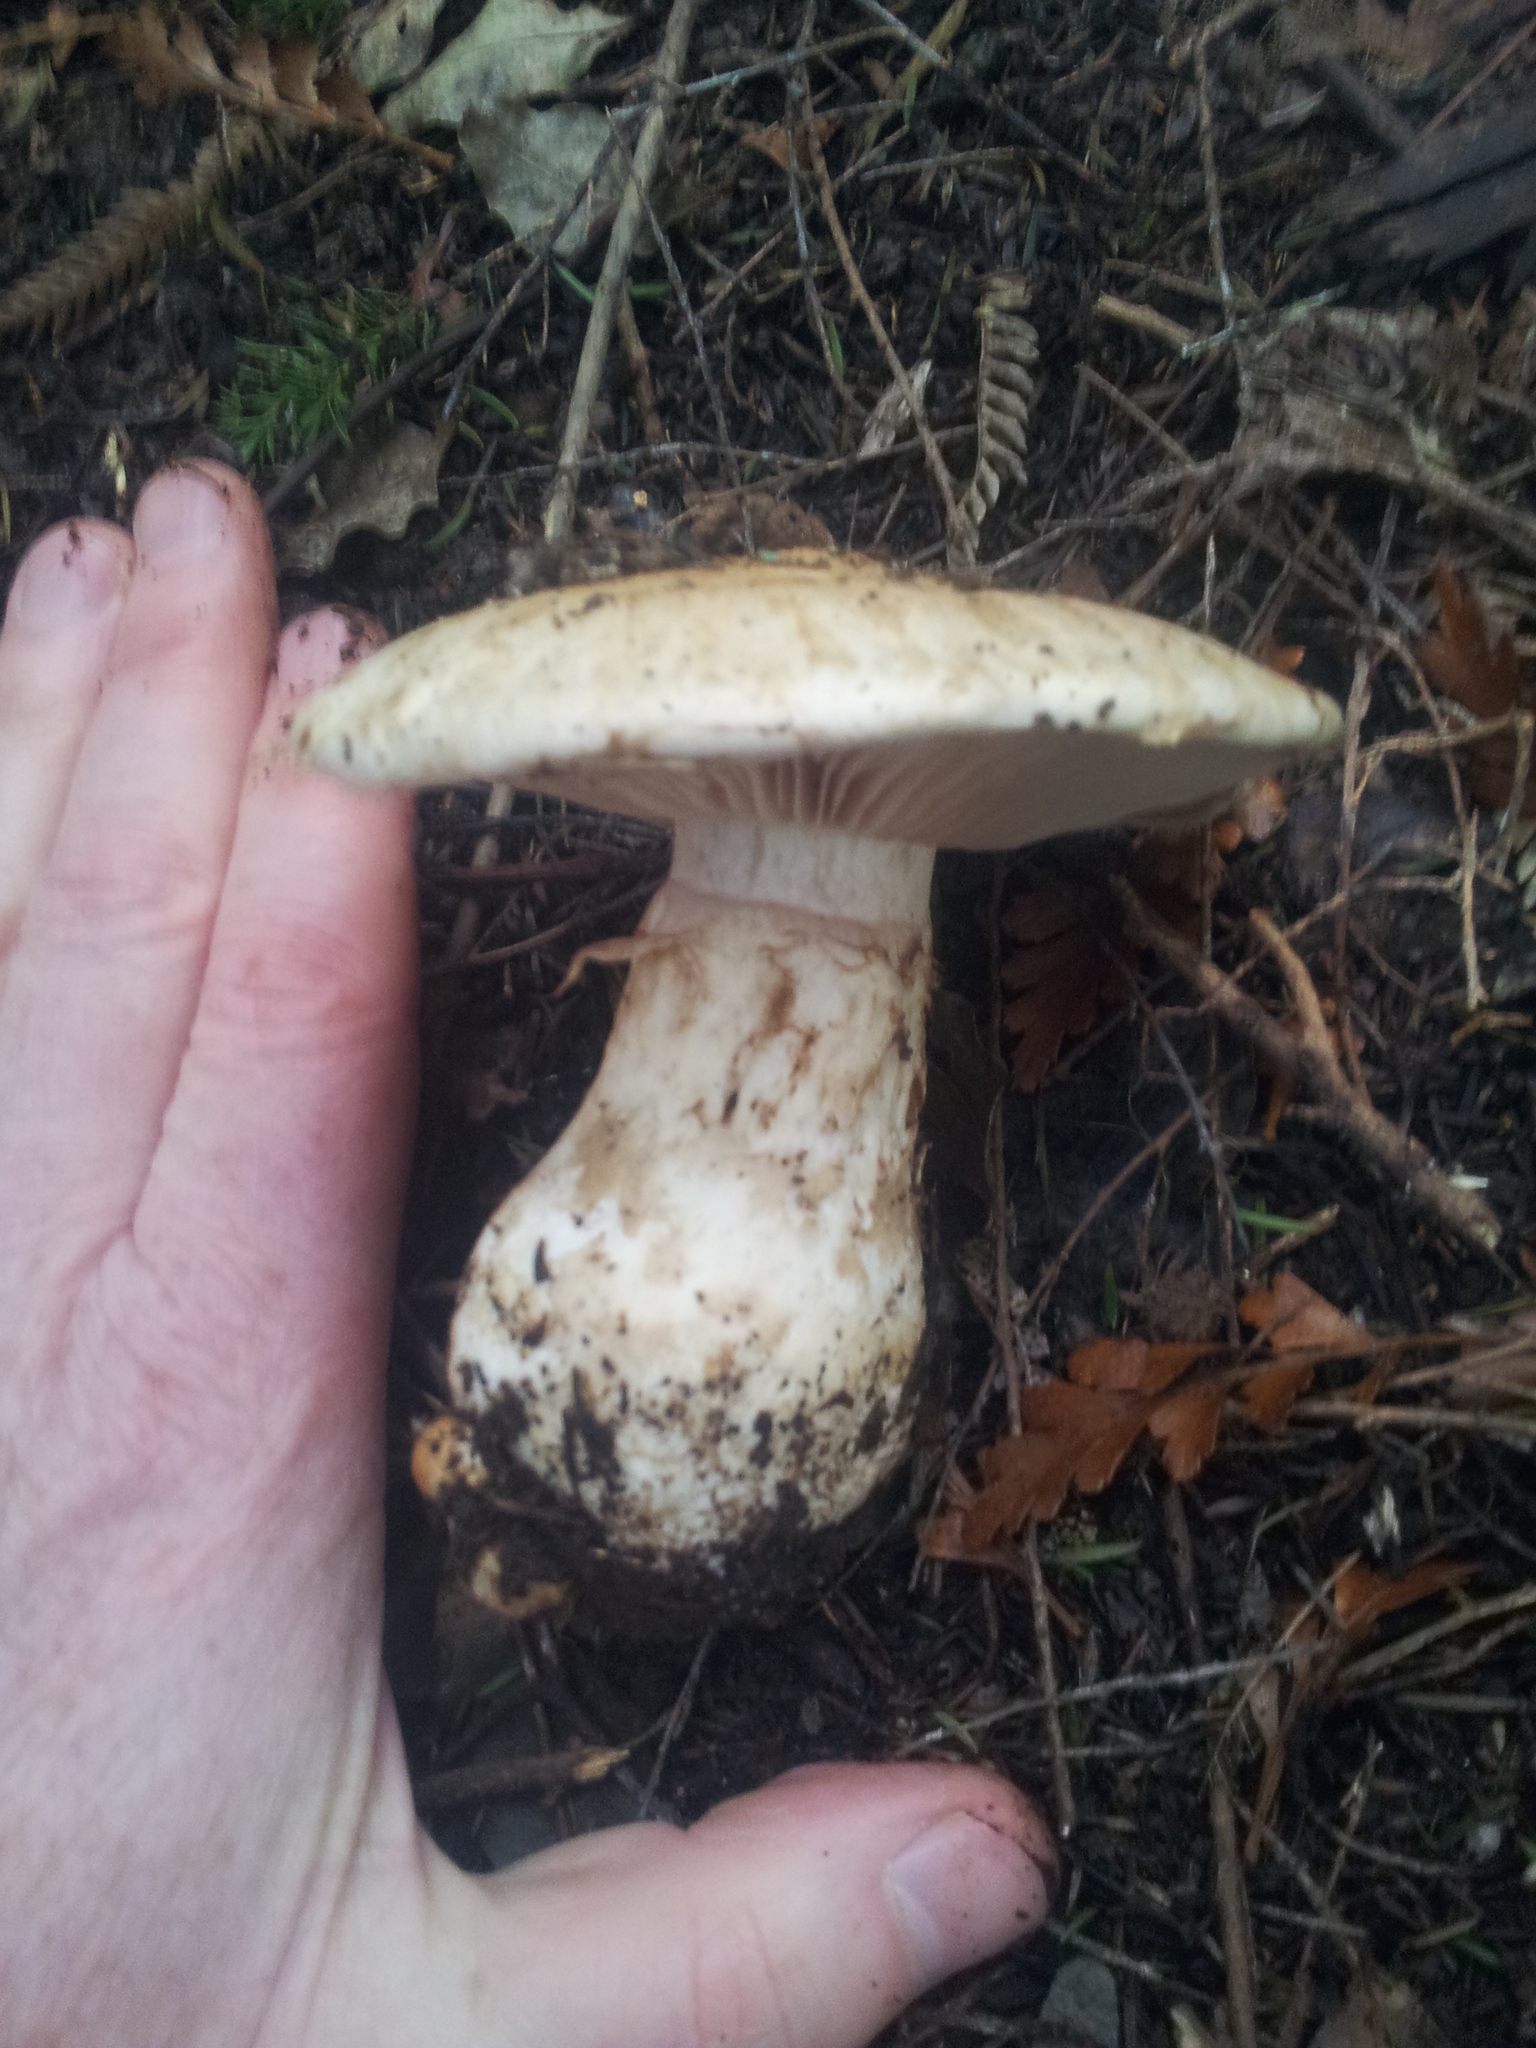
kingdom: Fungi
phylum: Basidiomycota
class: Agaricomycetes
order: Agaricales
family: Hymenogastraceae
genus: Hebeloma
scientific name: Hebeloma victoriense
